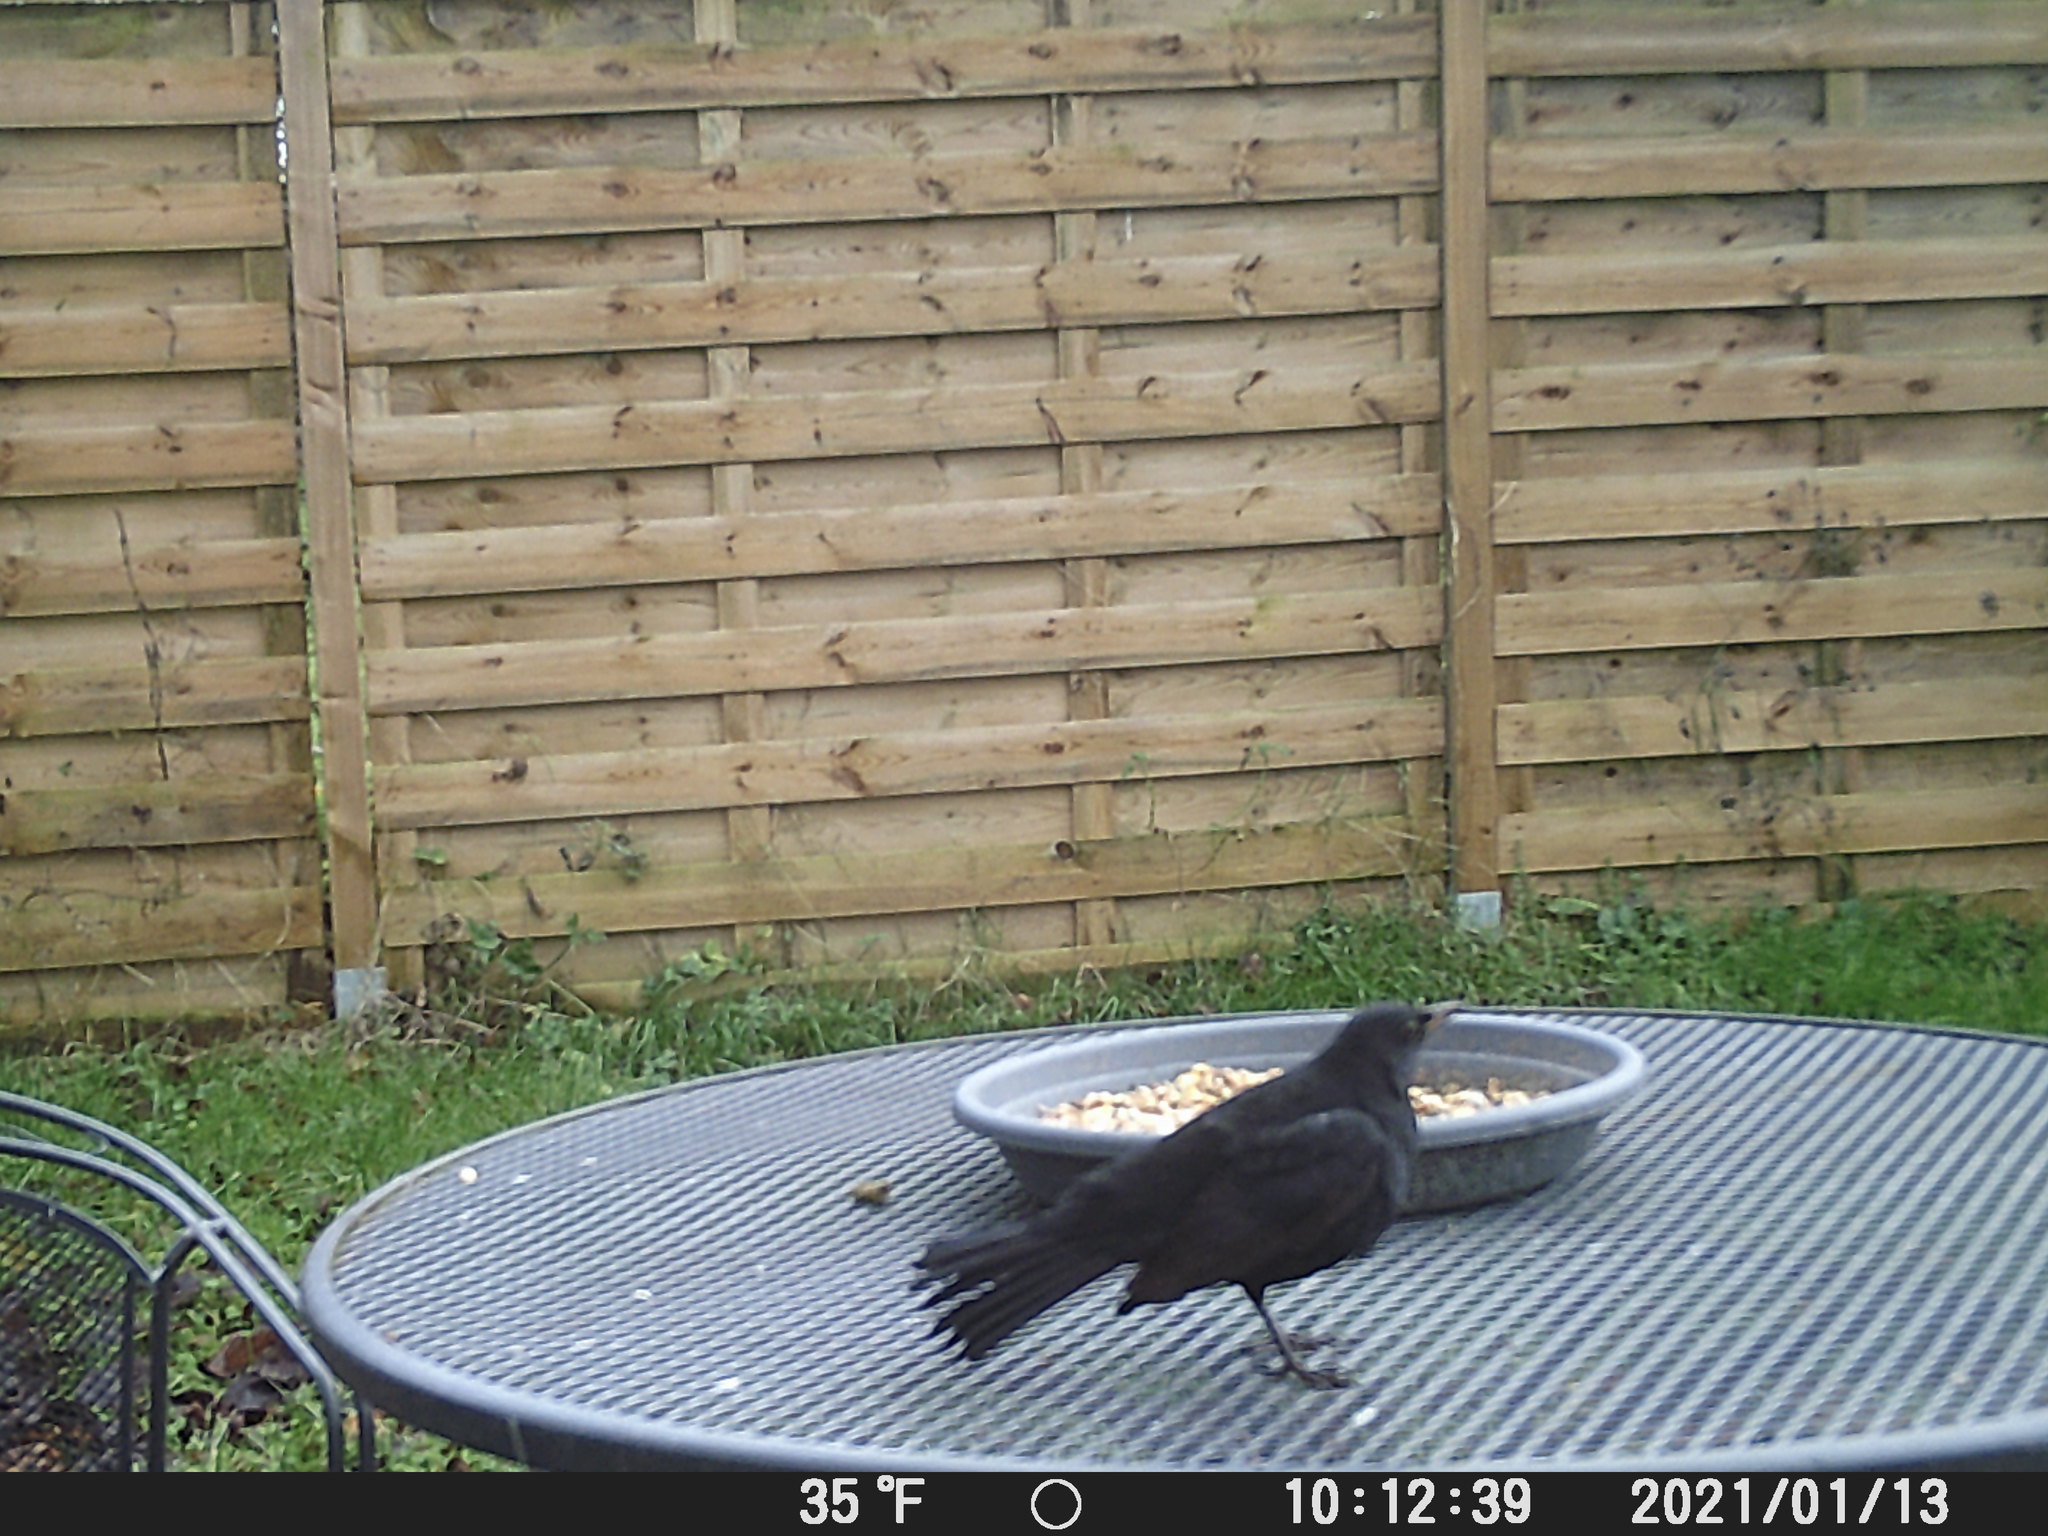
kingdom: Animalia
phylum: Chordata
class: Aves
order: Passeriformes
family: Turdidae
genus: Turdus
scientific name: Turdus merula
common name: Common blackbird
